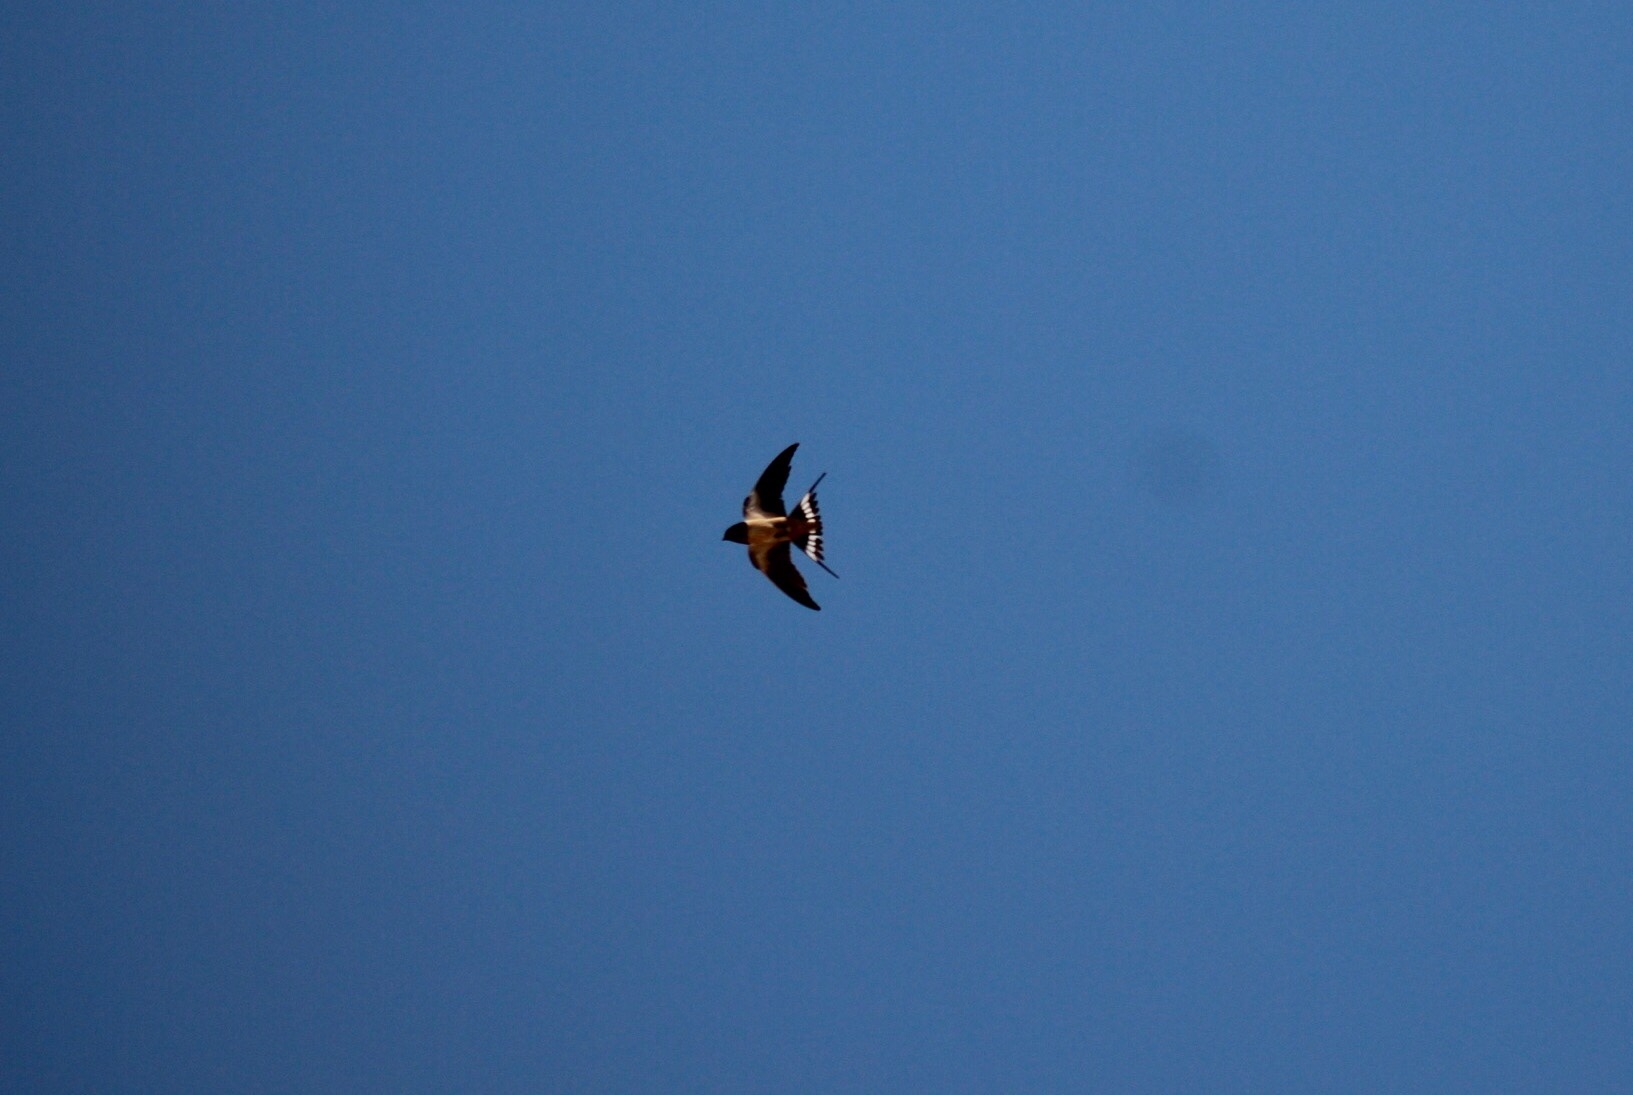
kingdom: Animalia
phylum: Chordata
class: Aves
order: Passeriformes
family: Hirundinidae
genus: Hirundo
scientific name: Hirundo rustica
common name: Barn swallow
